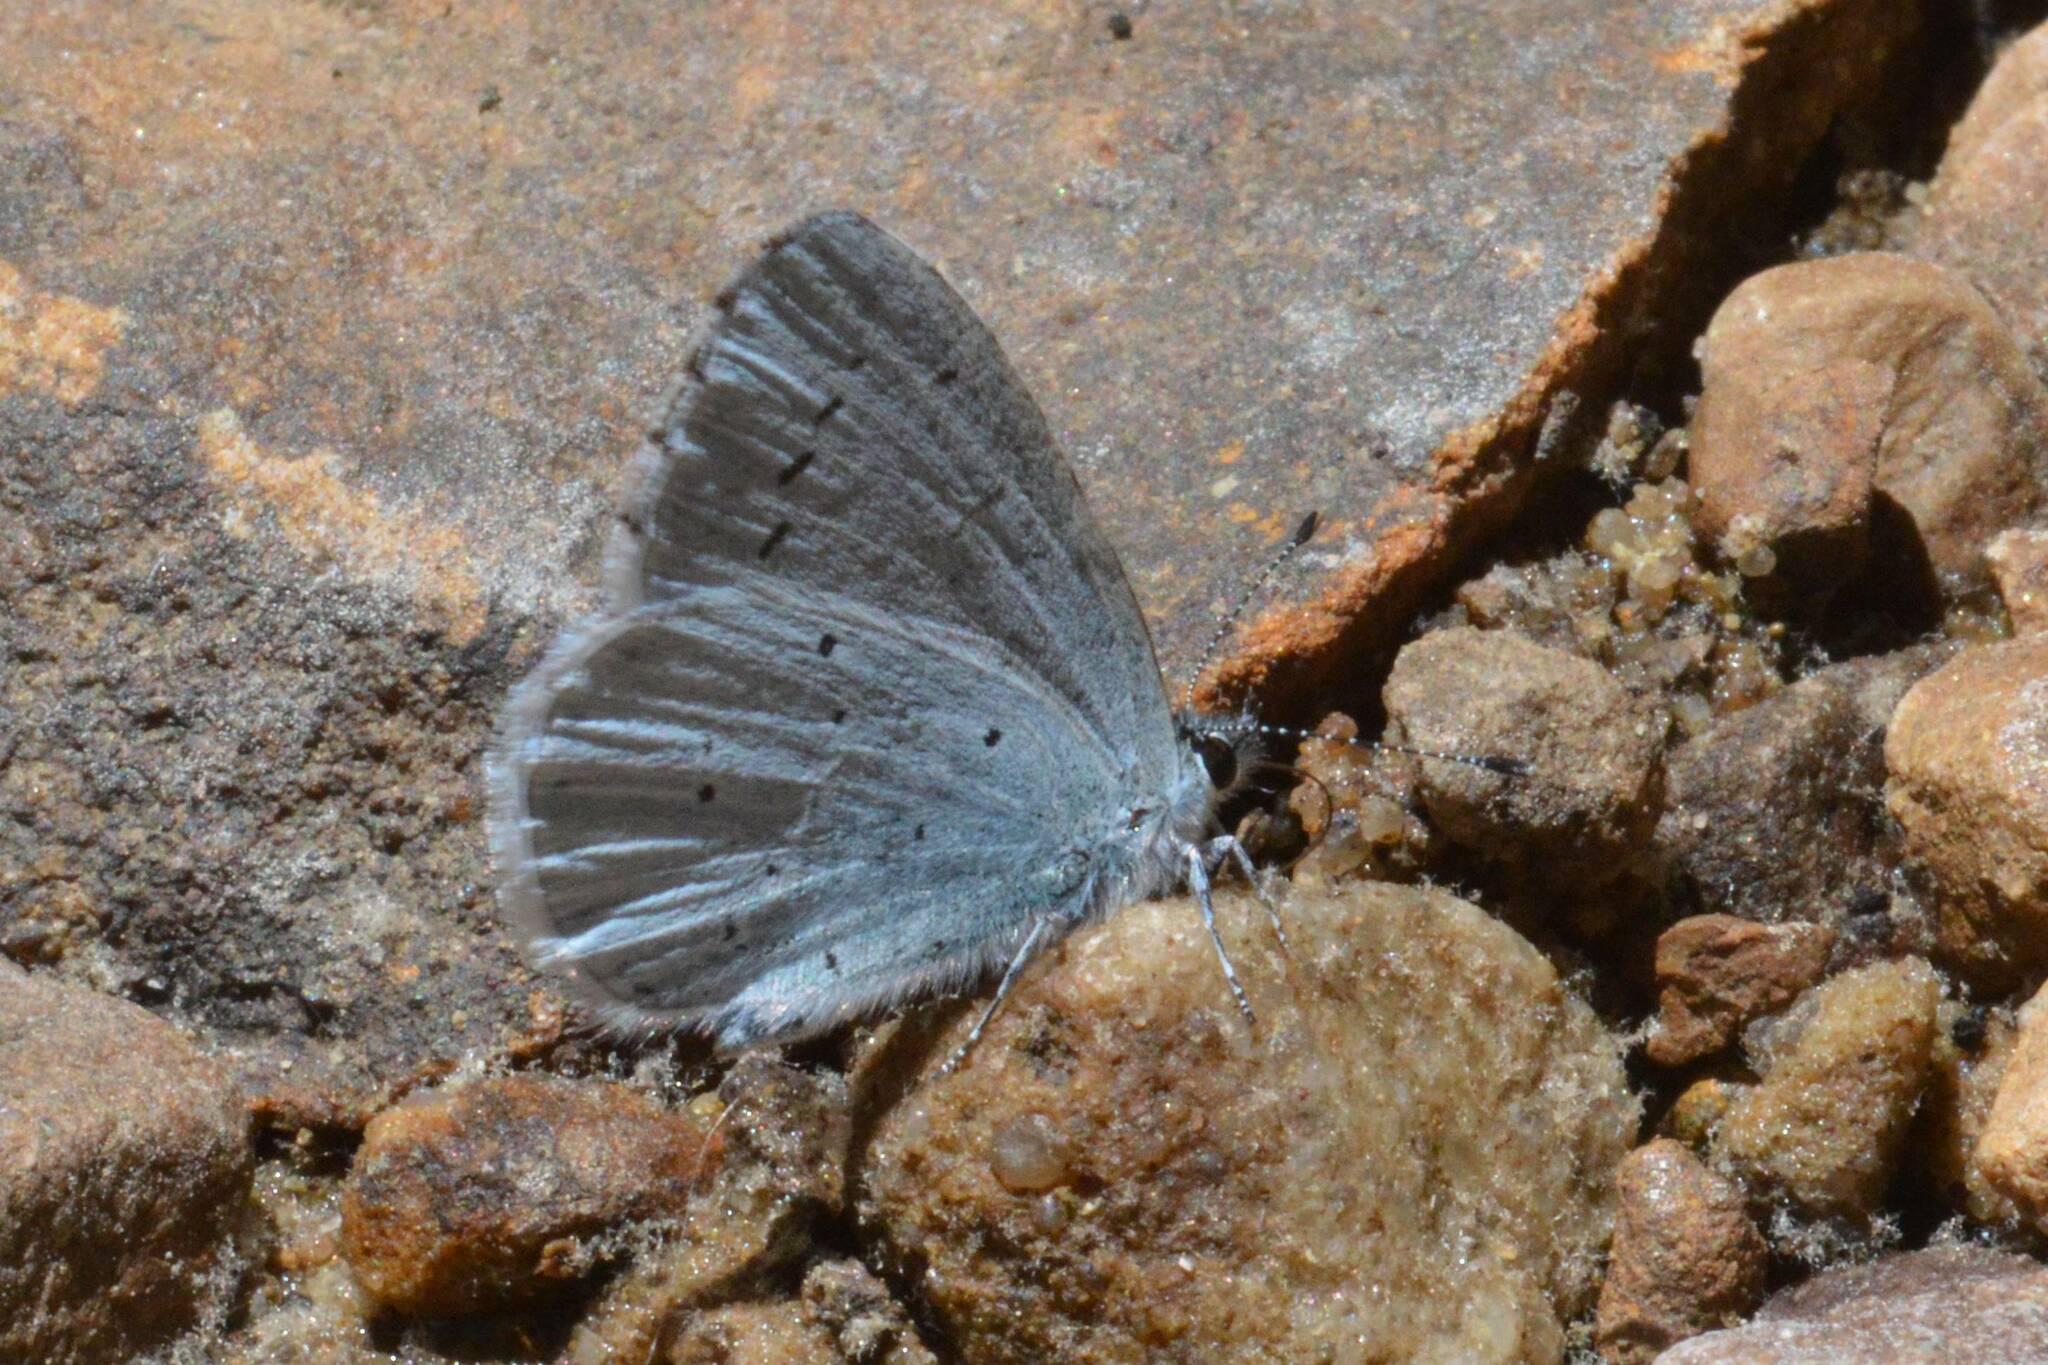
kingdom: Animalia
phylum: Arthropoda
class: Insecta
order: Lepidoptera
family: Lycaenidae
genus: Celastrina
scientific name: Celastrina argiolus
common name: Holly blue
